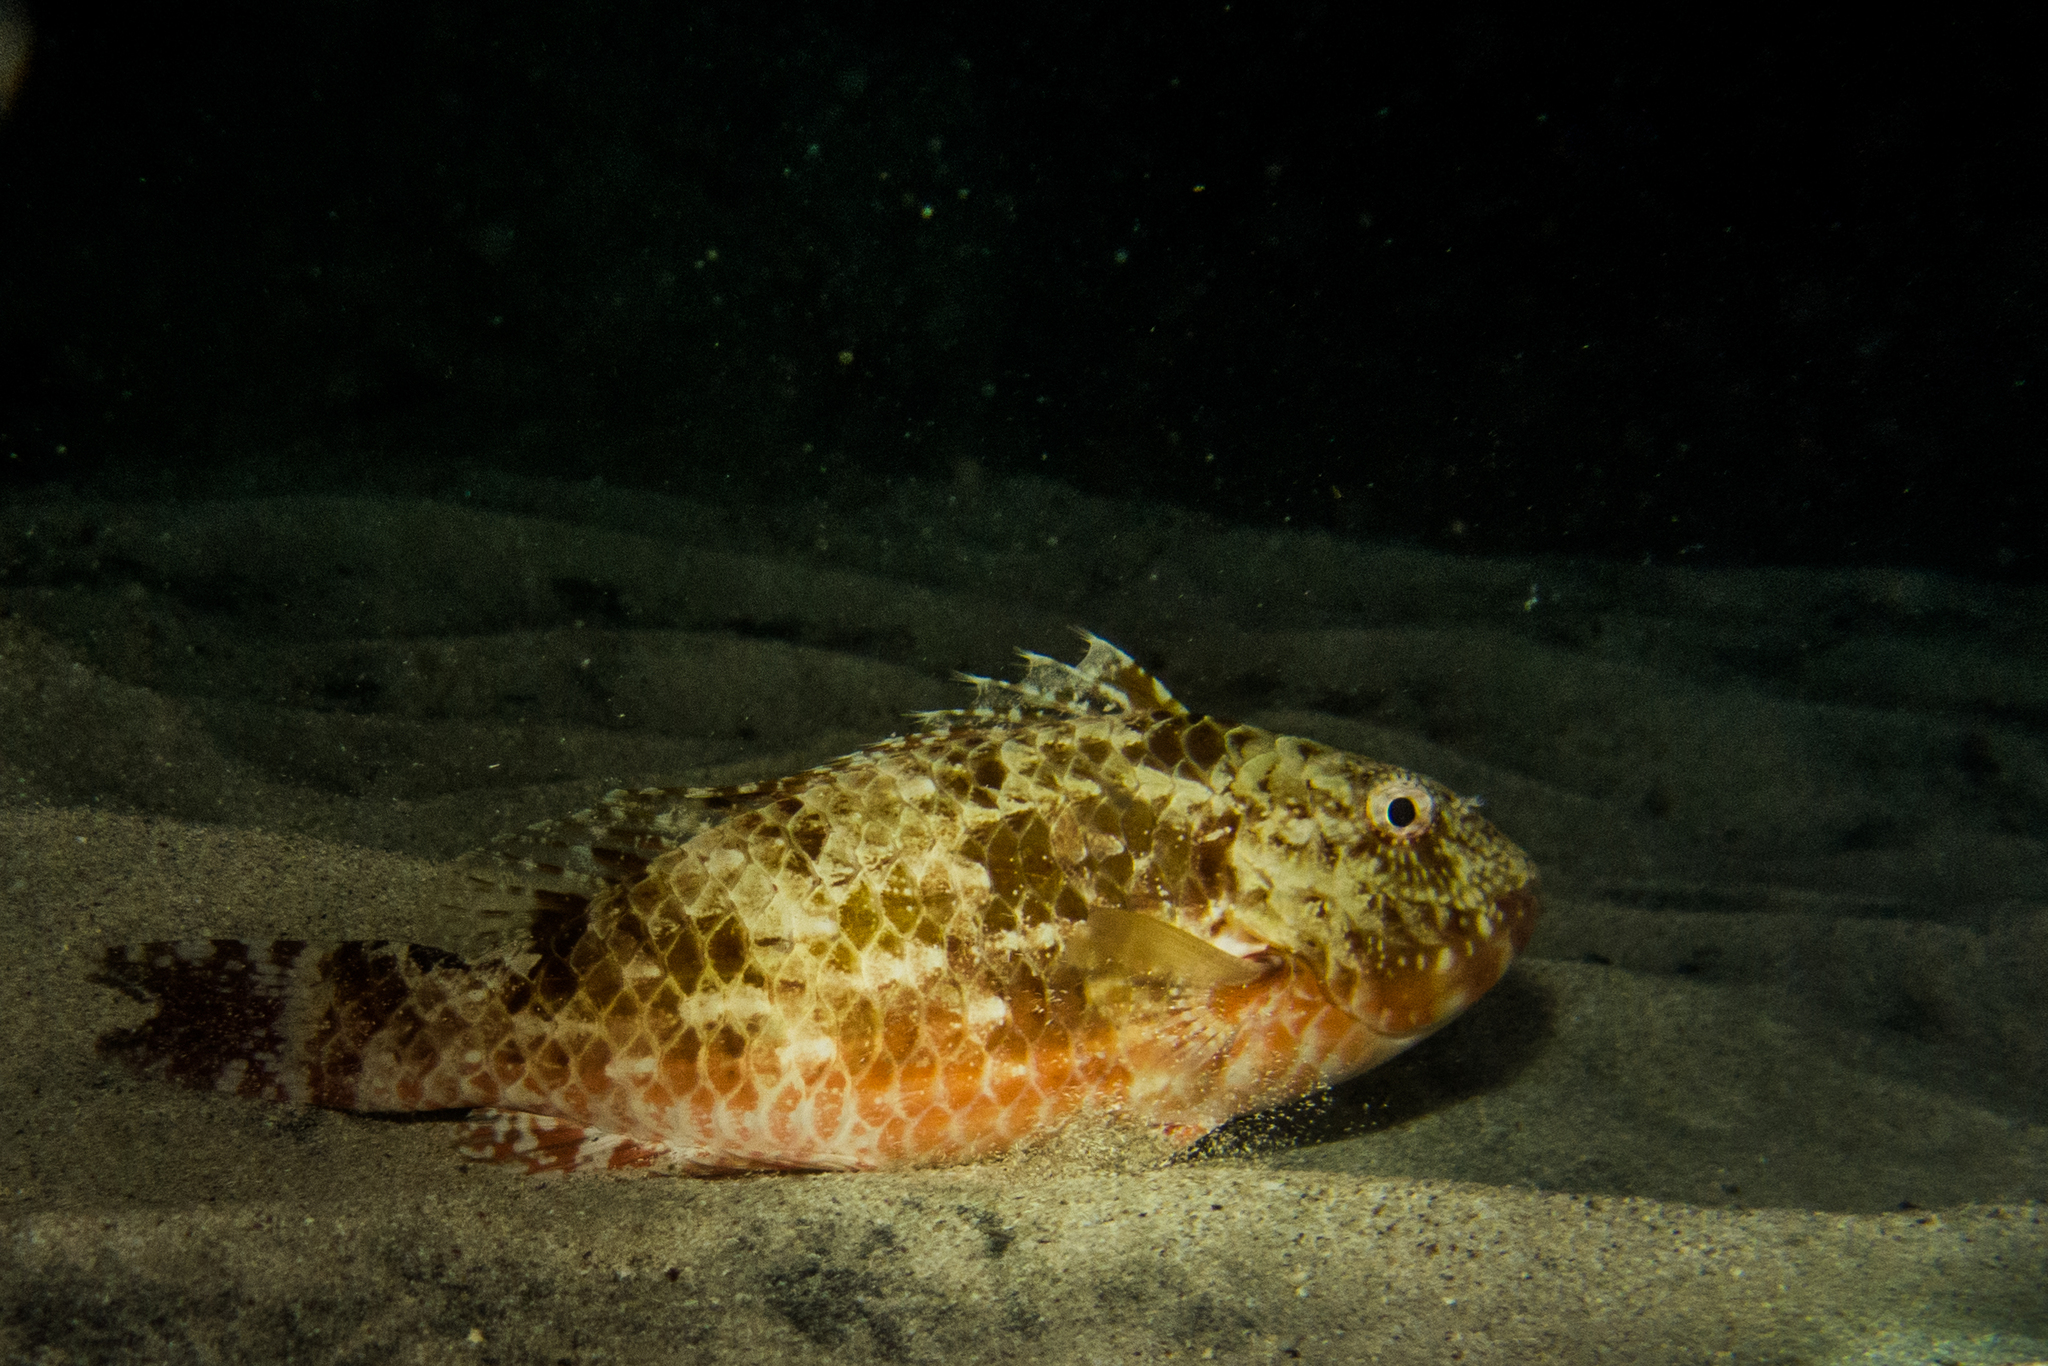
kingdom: Animalia
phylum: Chordata
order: Perciformes
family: Scaridae
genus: Sparisoma
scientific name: Sparisoma axillare
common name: Gray parrotfish
